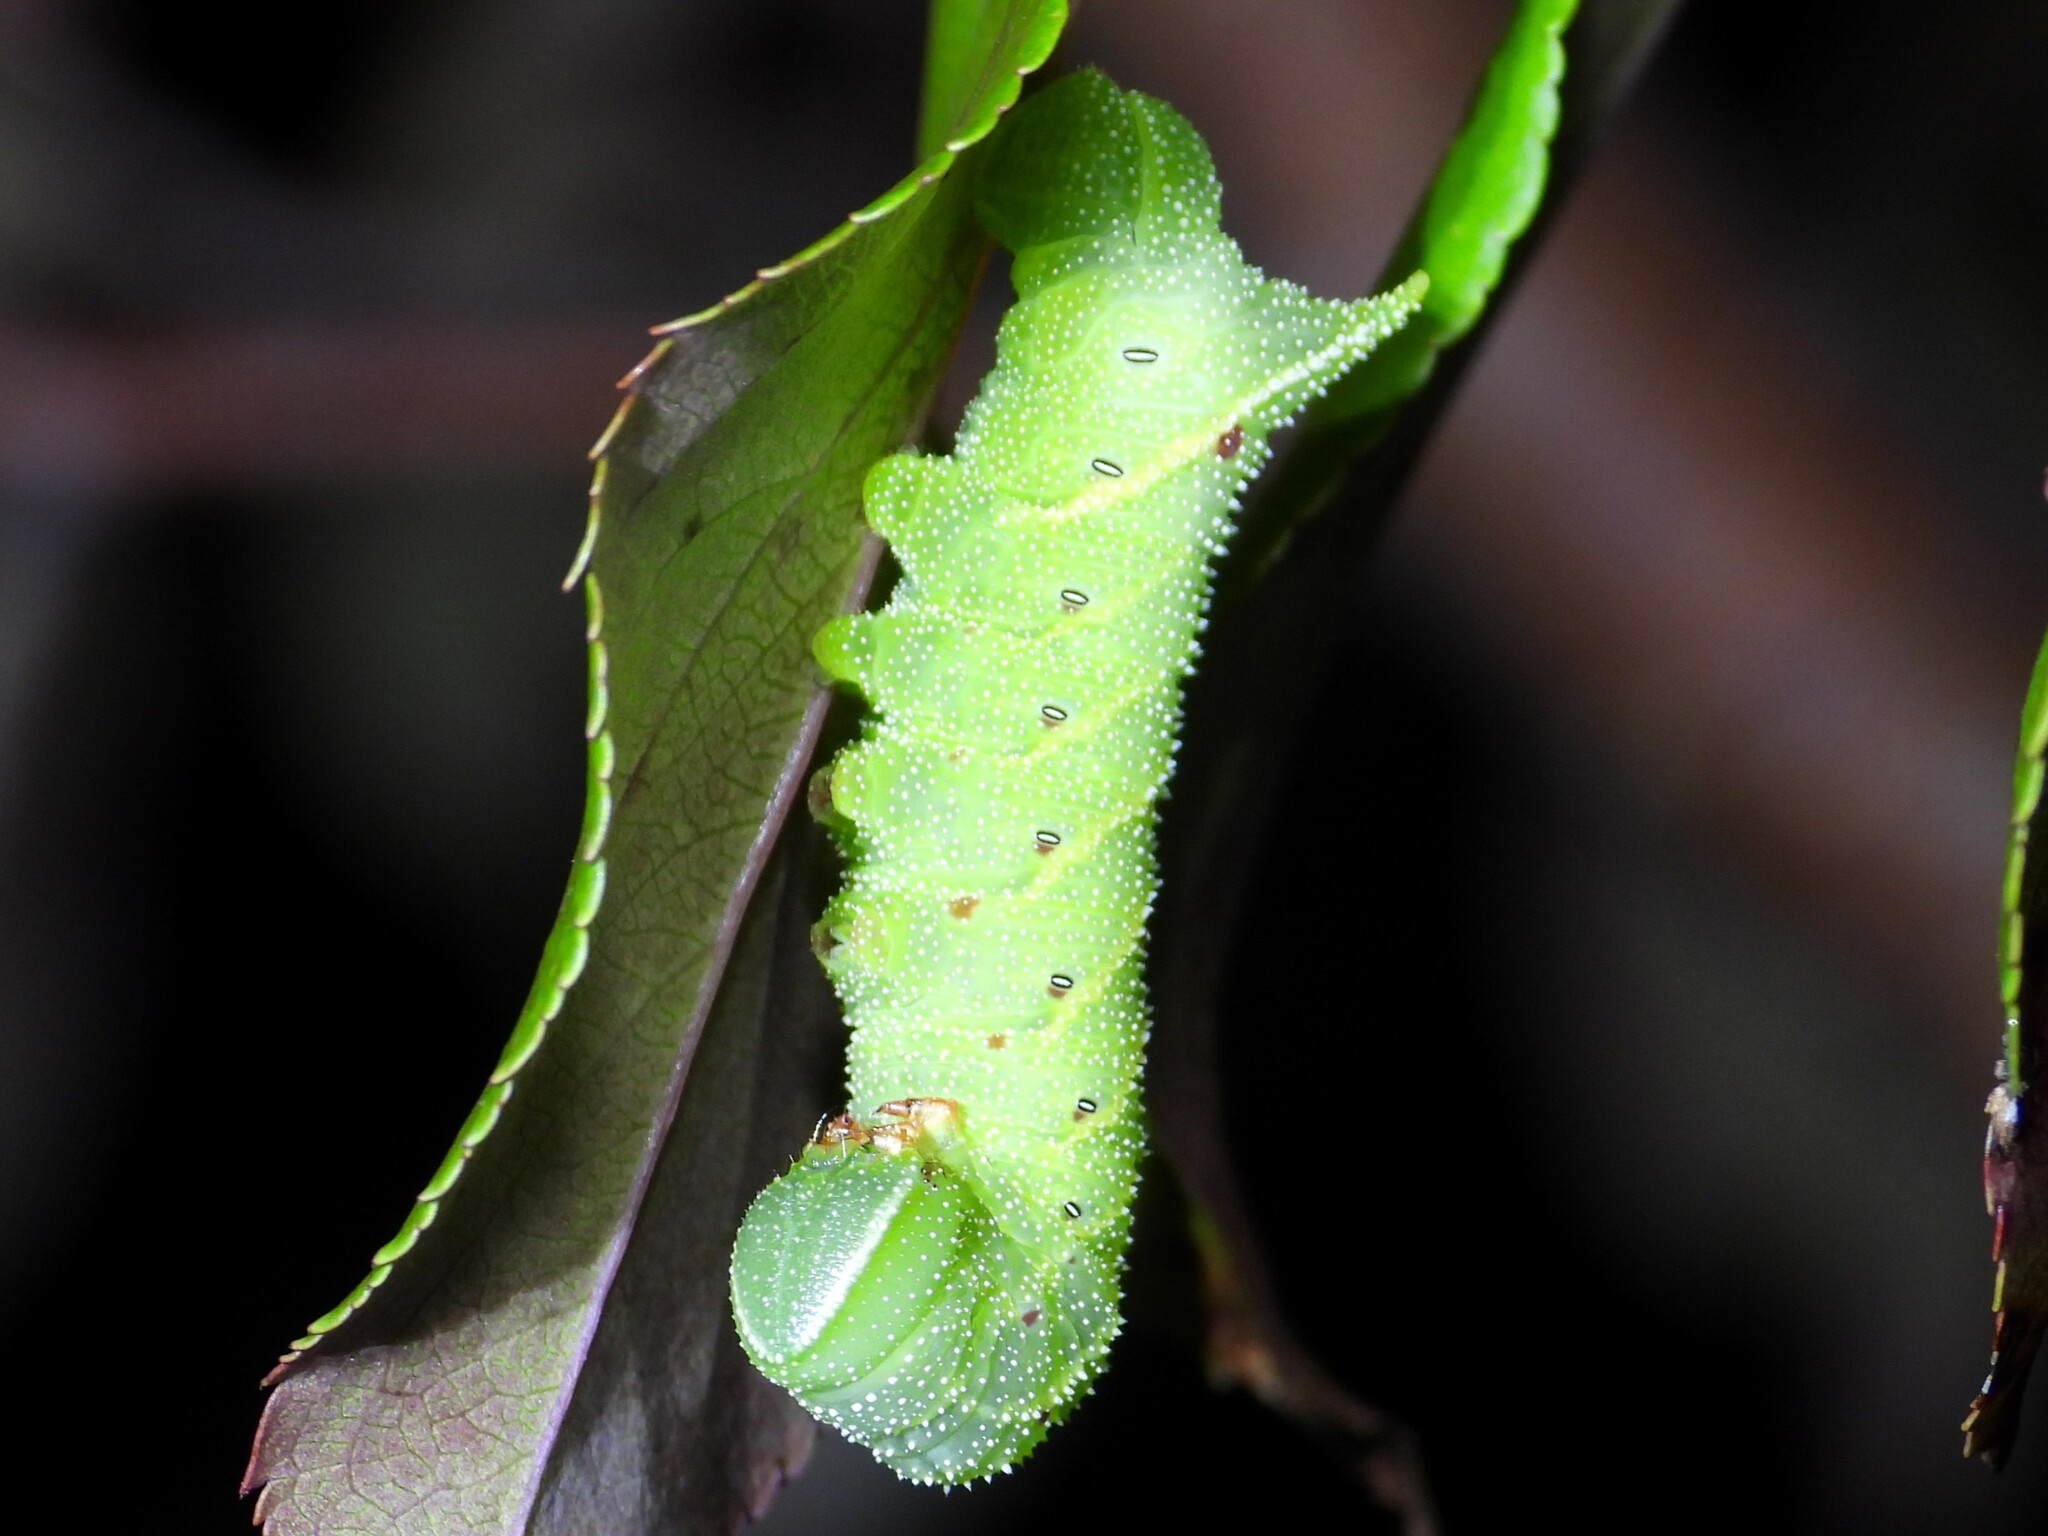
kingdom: Animalia
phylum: Arthropoda
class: Insecta
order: Lepidoptera
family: Sphingidae
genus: Paonias
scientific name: Paonias excaecata
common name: Blind-eyed sphinx
